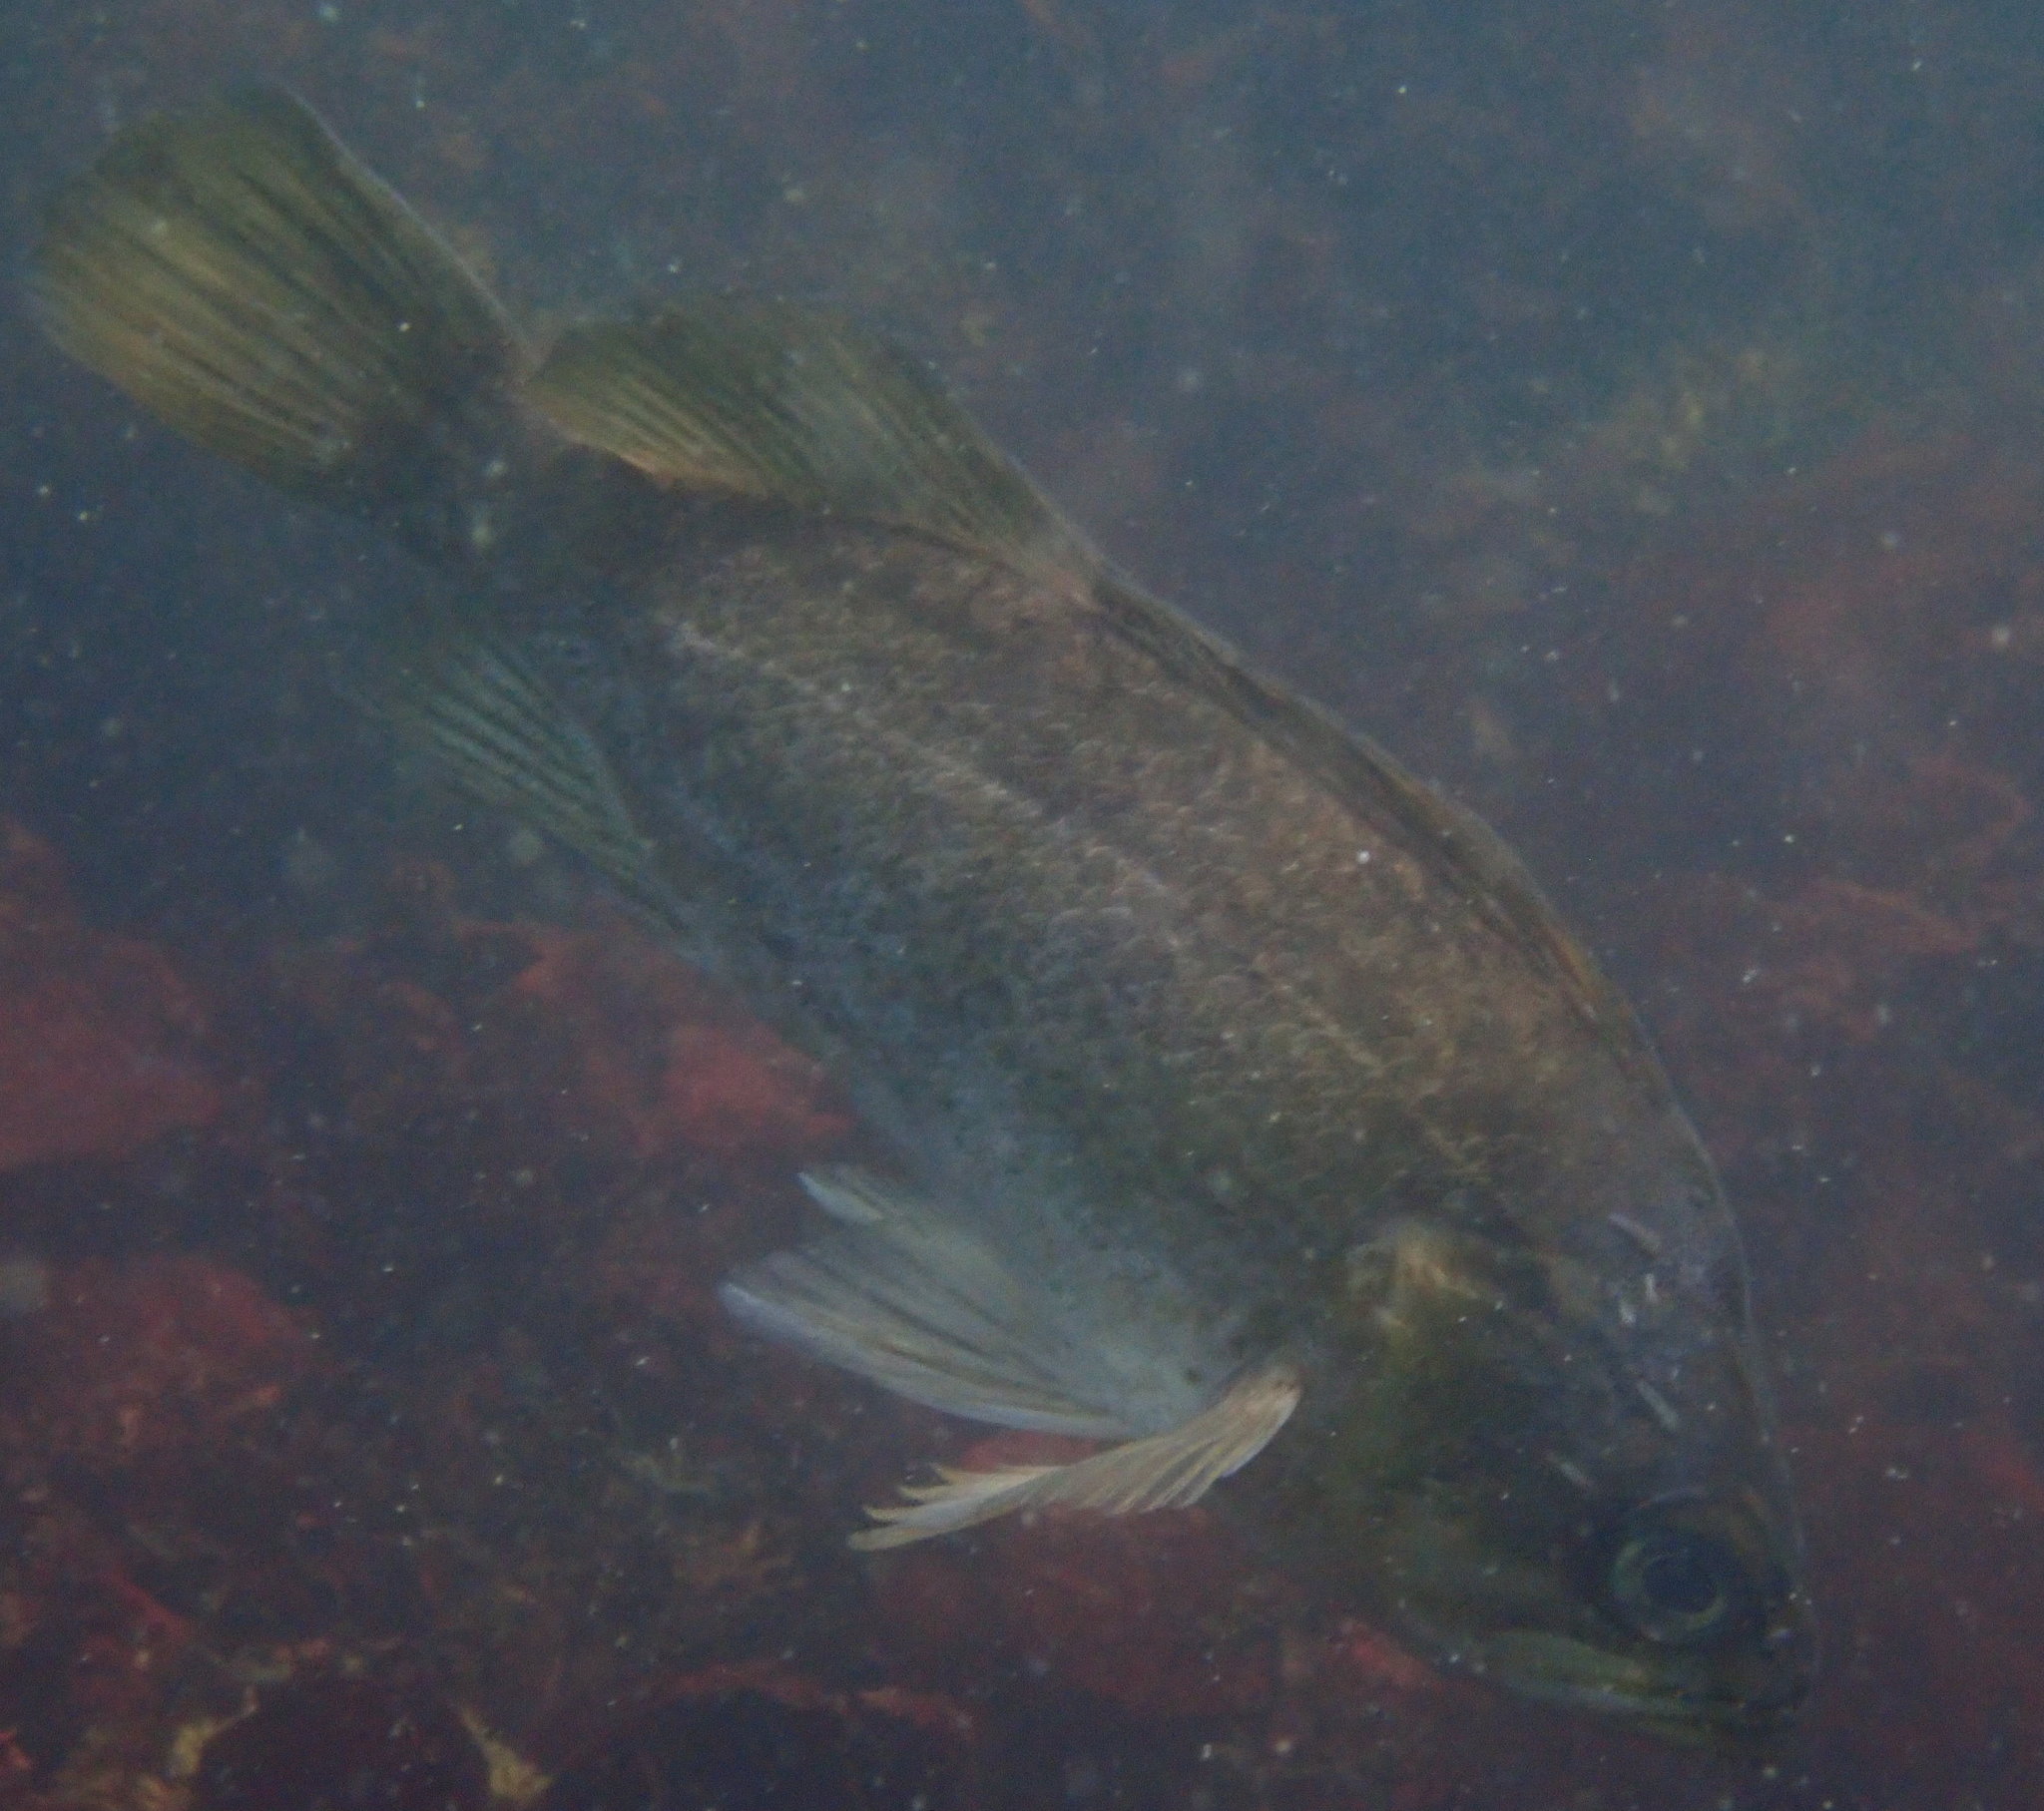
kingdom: Animalia
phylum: Chordata
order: Scorpaeniformes
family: Sebastidae
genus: Sebastes
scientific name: Sebastes atrovirens
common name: Kelp rockfish
